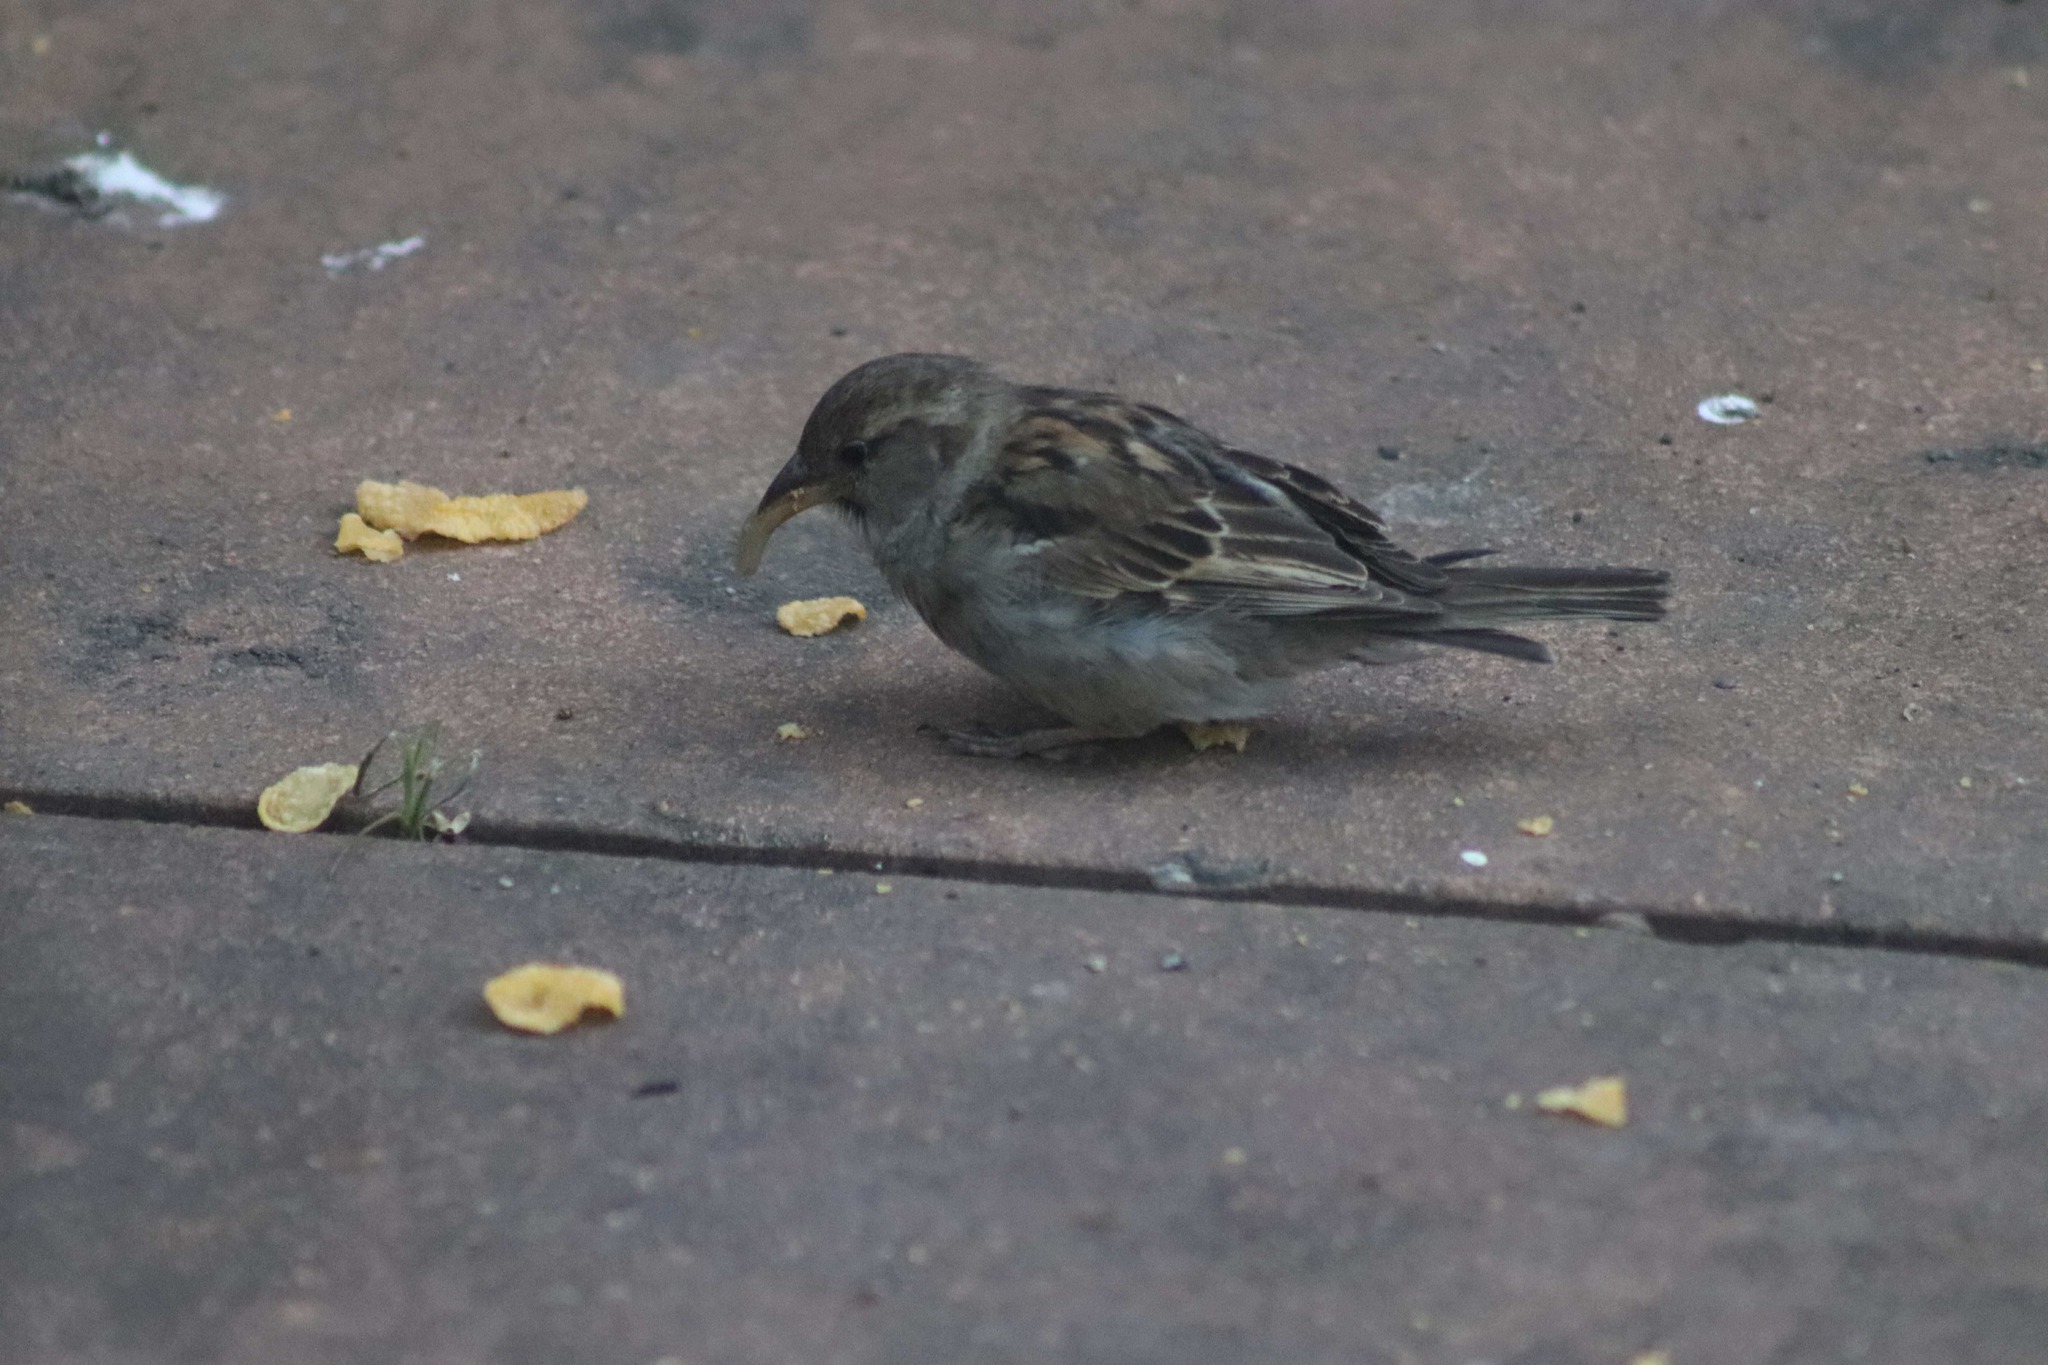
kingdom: Animalia
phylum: Chordata
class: Aves
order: Passeriformes
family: Passeridae
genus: Passer
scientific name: Passer domesticus
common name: House sparrow
